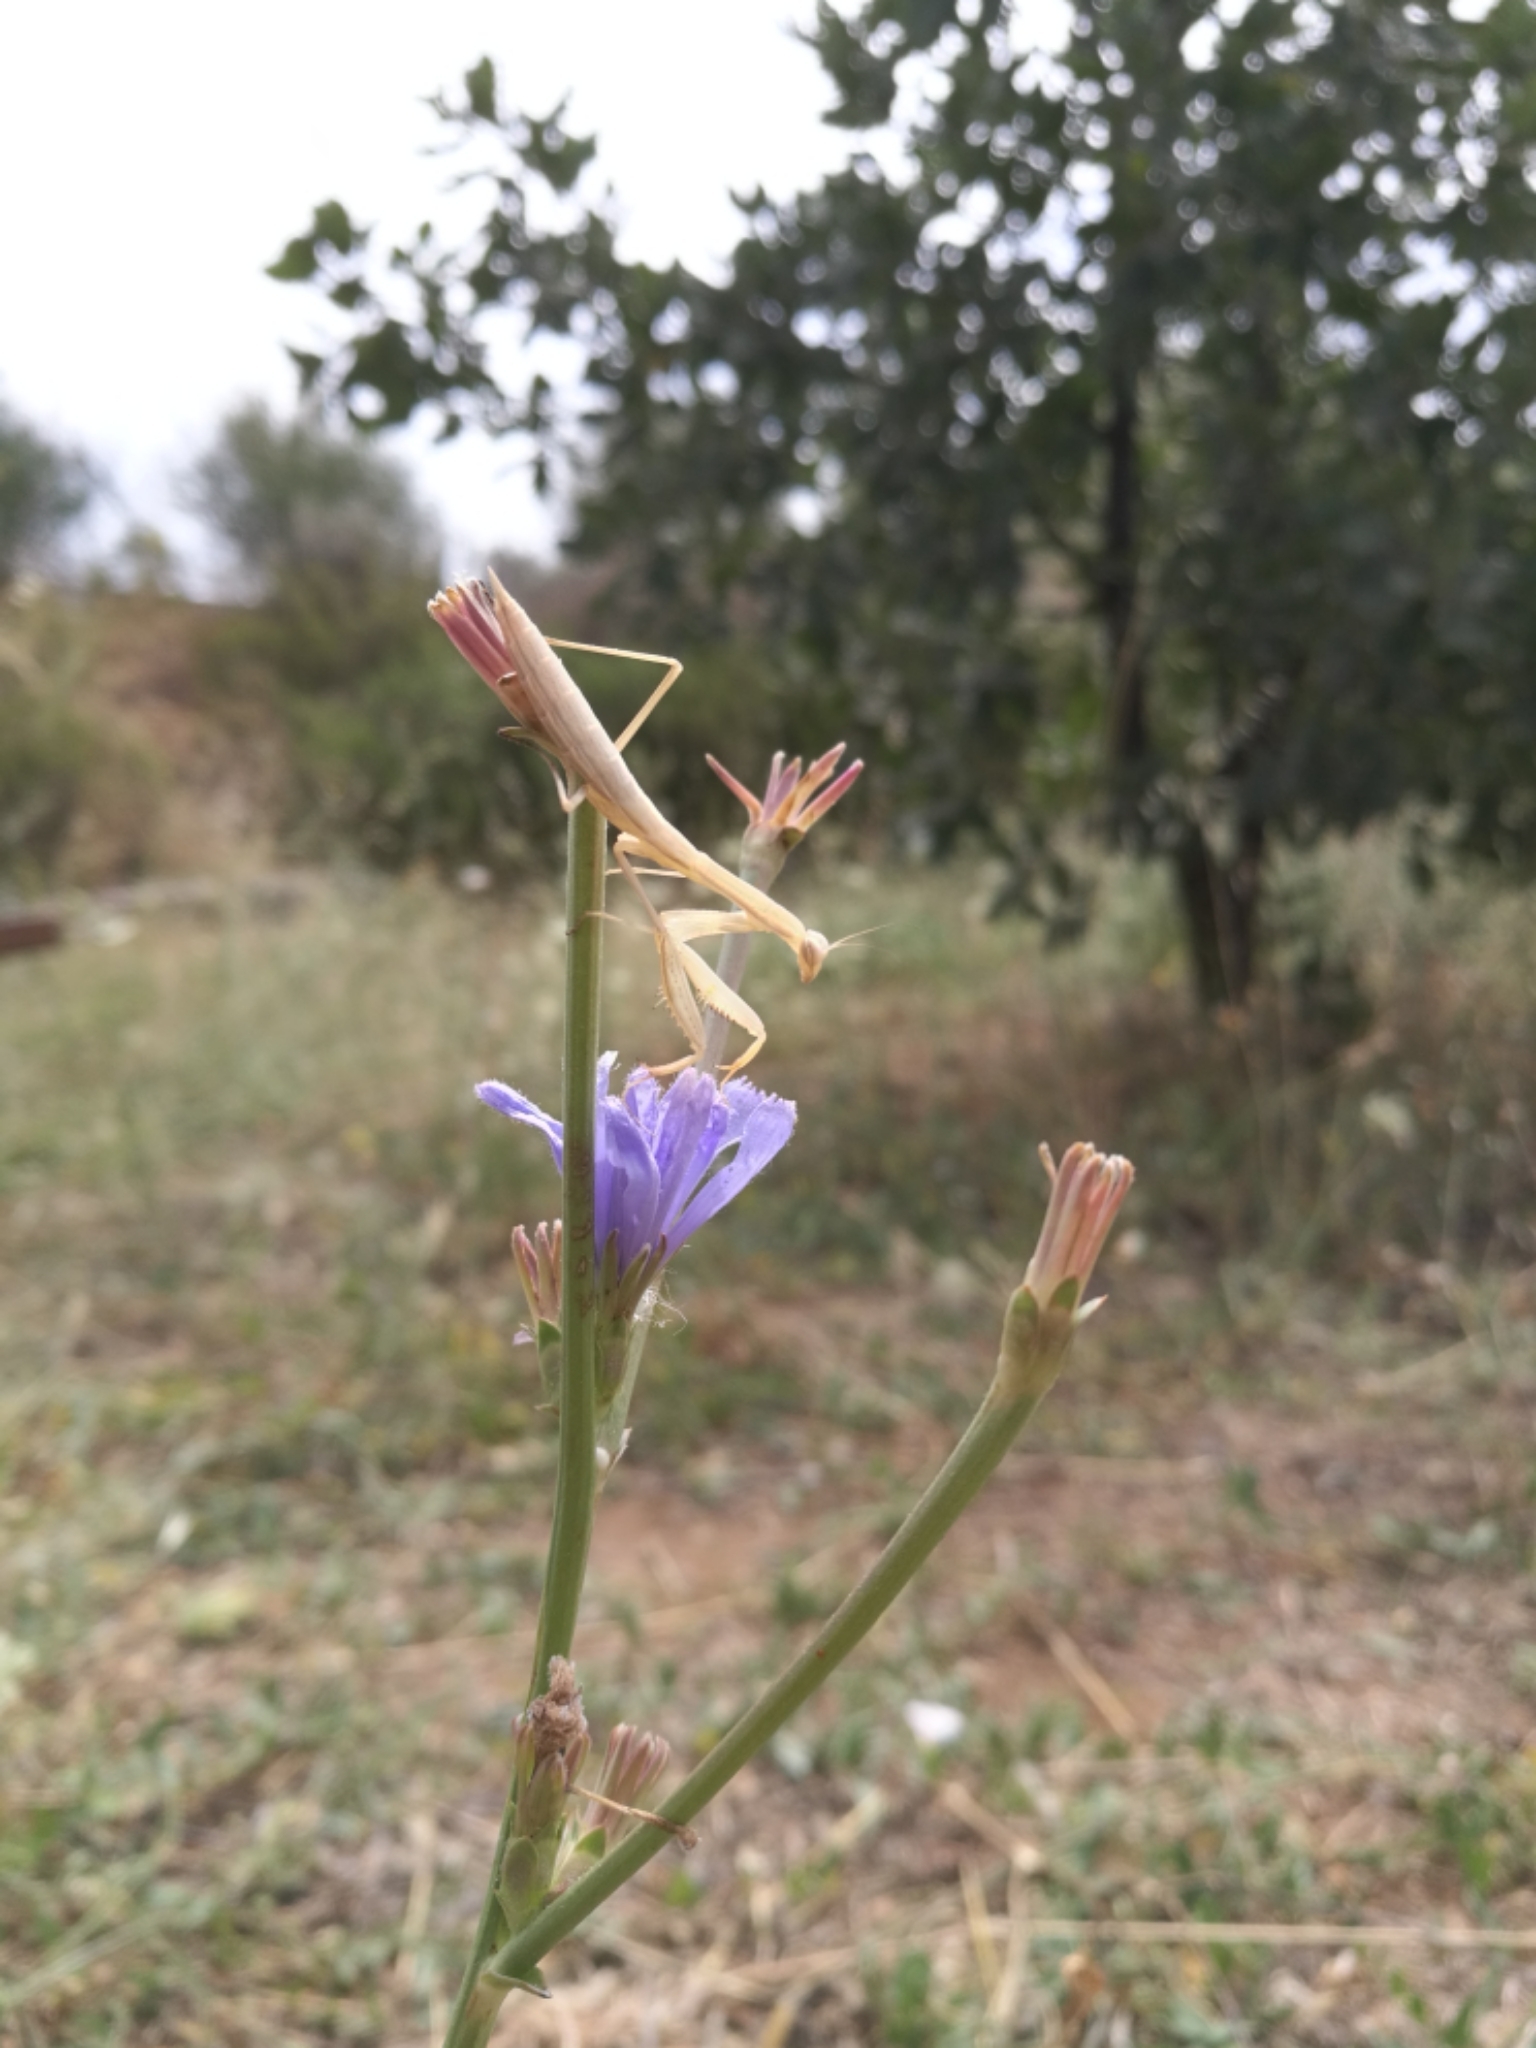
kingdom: Animalia
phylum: Arthropoda
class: Insecta
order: Mantodea
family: Mantidae
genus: Mantis
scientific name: Mantis religiosa
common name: Praying mantis
